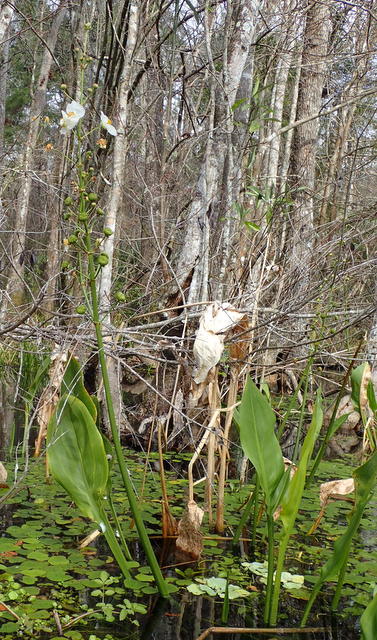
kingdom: Plantae
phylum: Tracheophyta
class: Liliopsida
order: Alismatales
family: Alismataceae
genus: Sagittaria
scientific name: Sagittaria lancifolia
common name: Lance-leaf arrowhead
